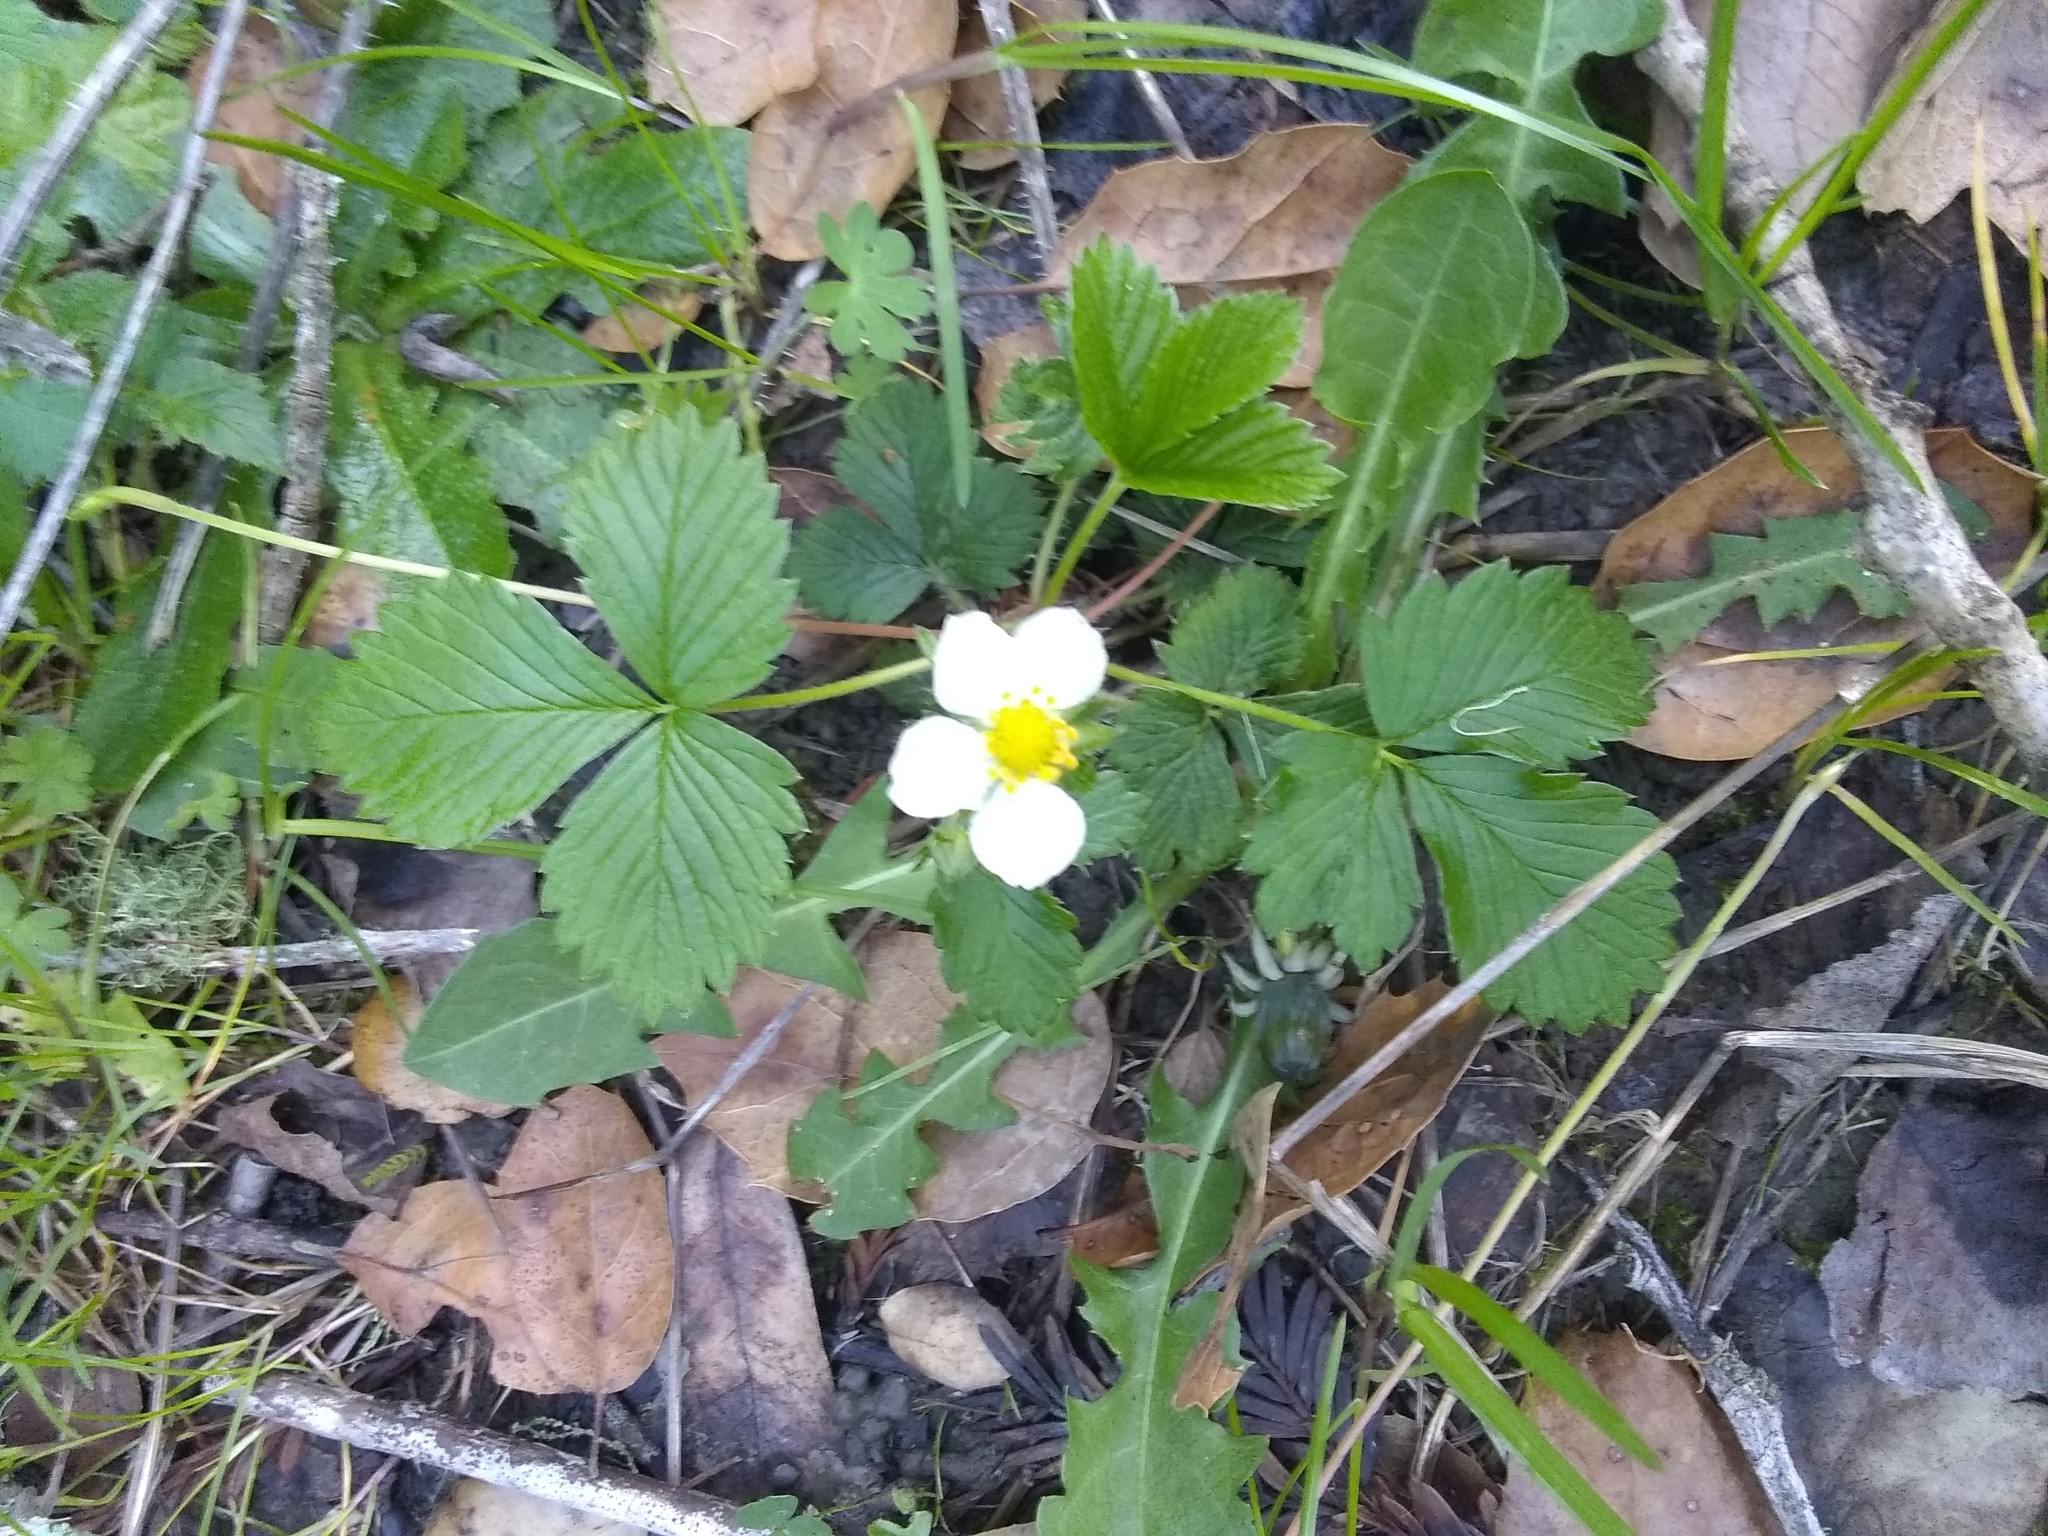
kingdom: Plantae
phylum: Tracheophyta
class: Magnoliopsida
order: Rosales
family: Rosaceae
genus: Fragaria
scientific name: Fragaria vesca
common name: Wild strawberry
